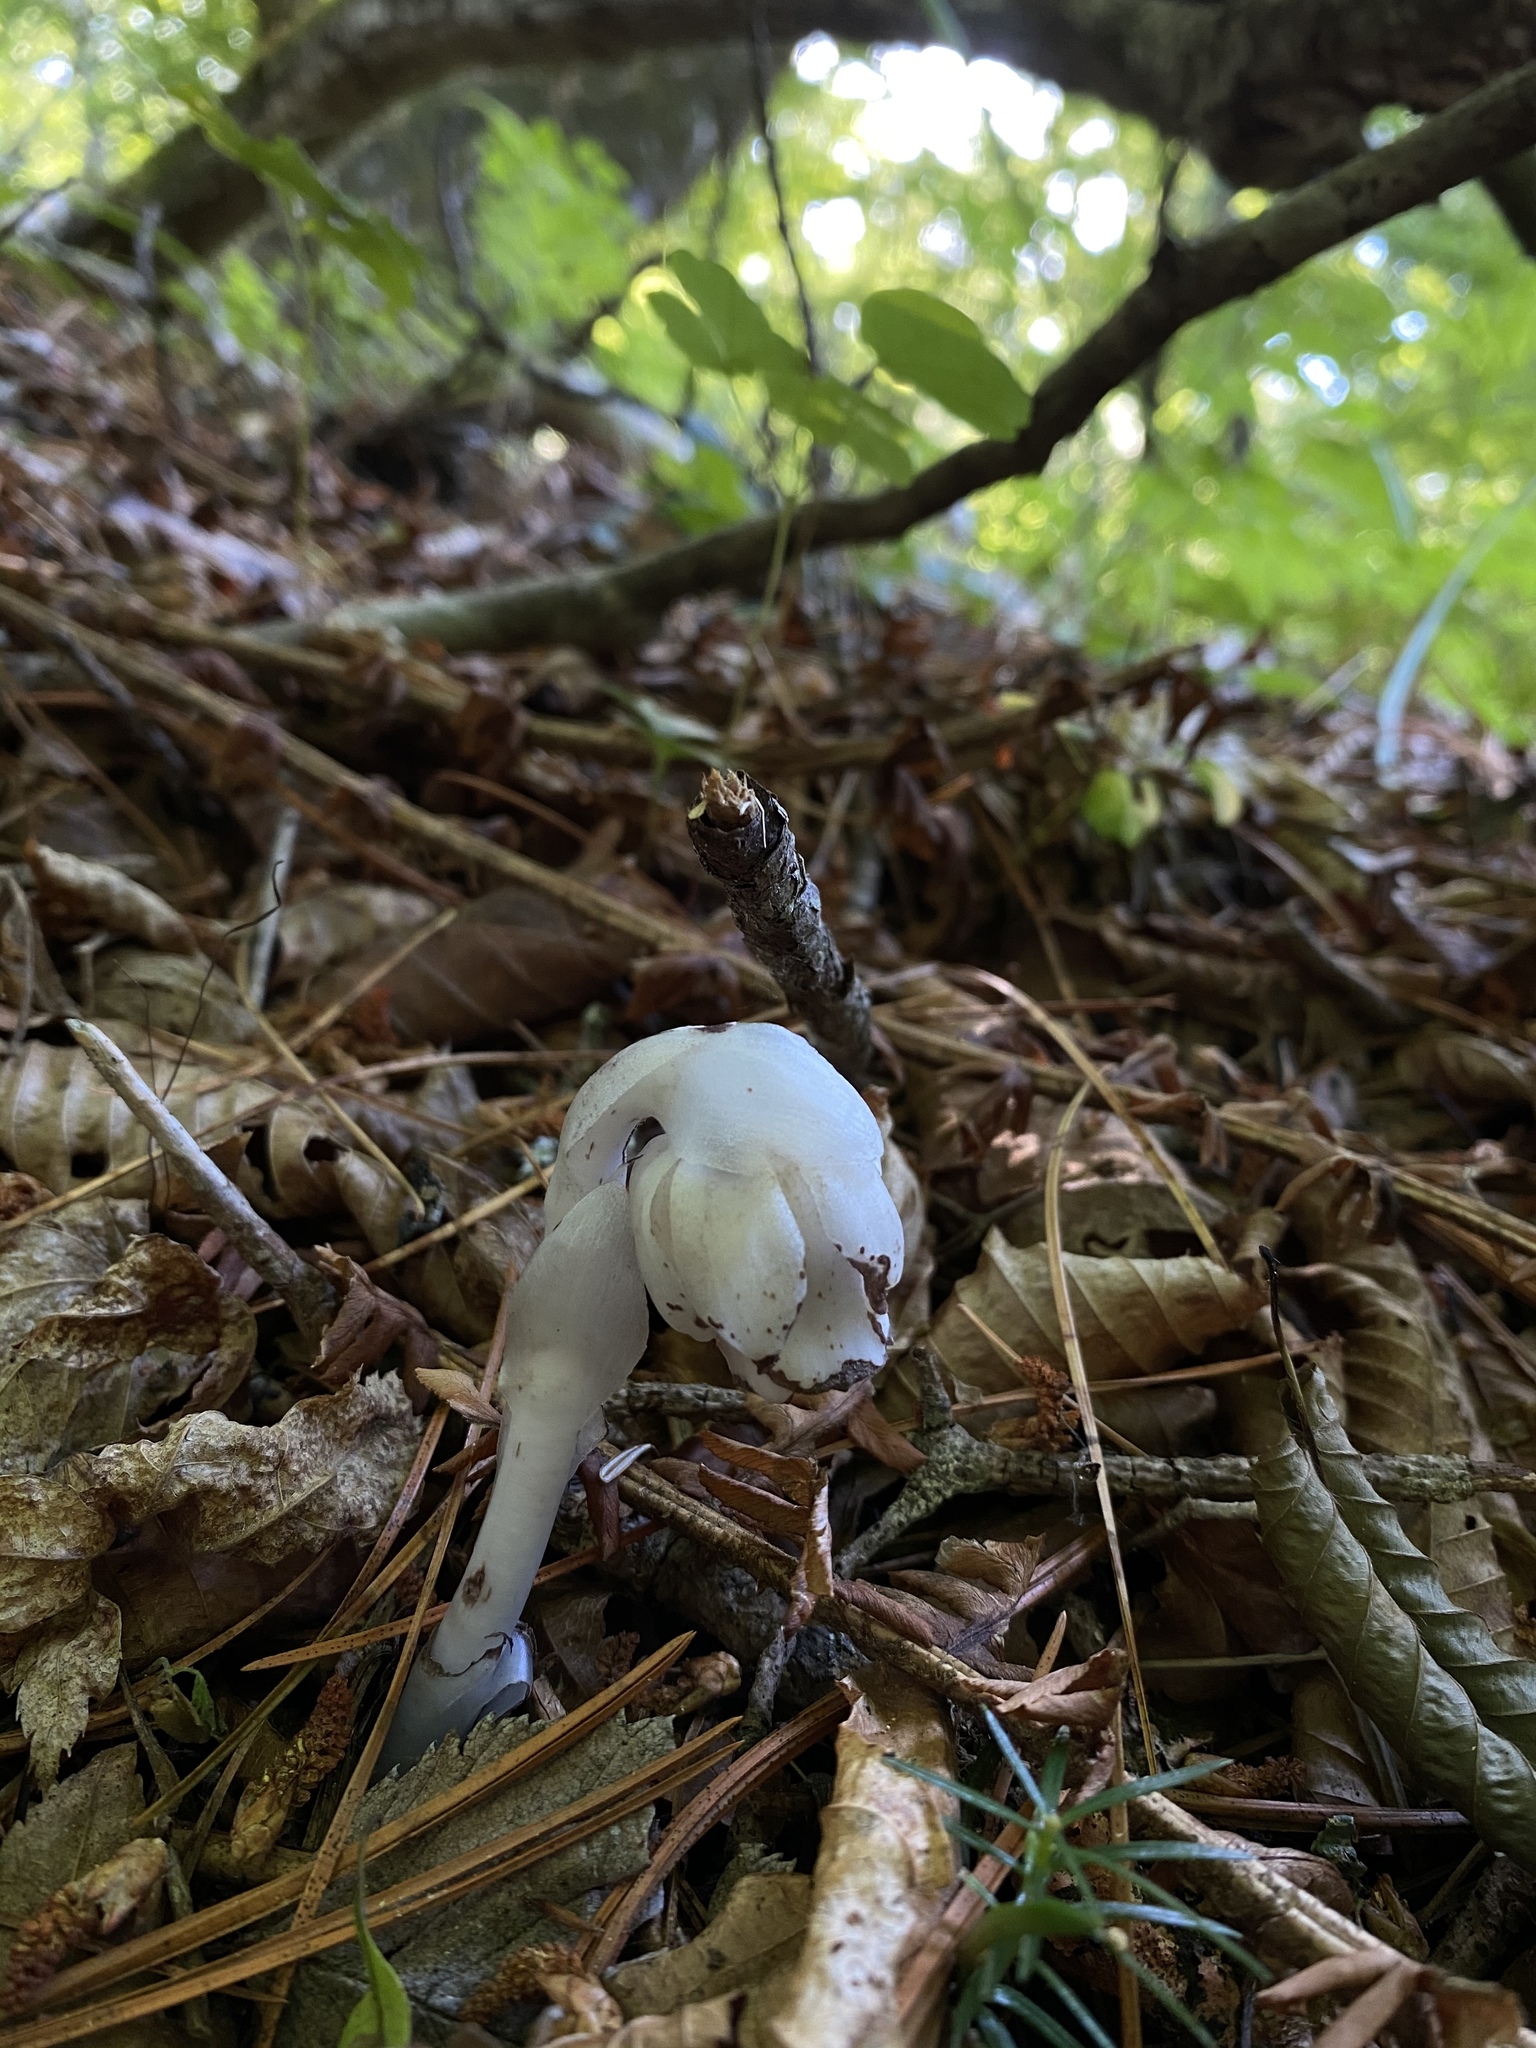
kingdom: Plantae
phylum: Tracheophyta
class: Magnoliopsida
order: Ericales
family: Ericaceae
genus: Monotropastrum
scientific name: Monotropastrum humile
